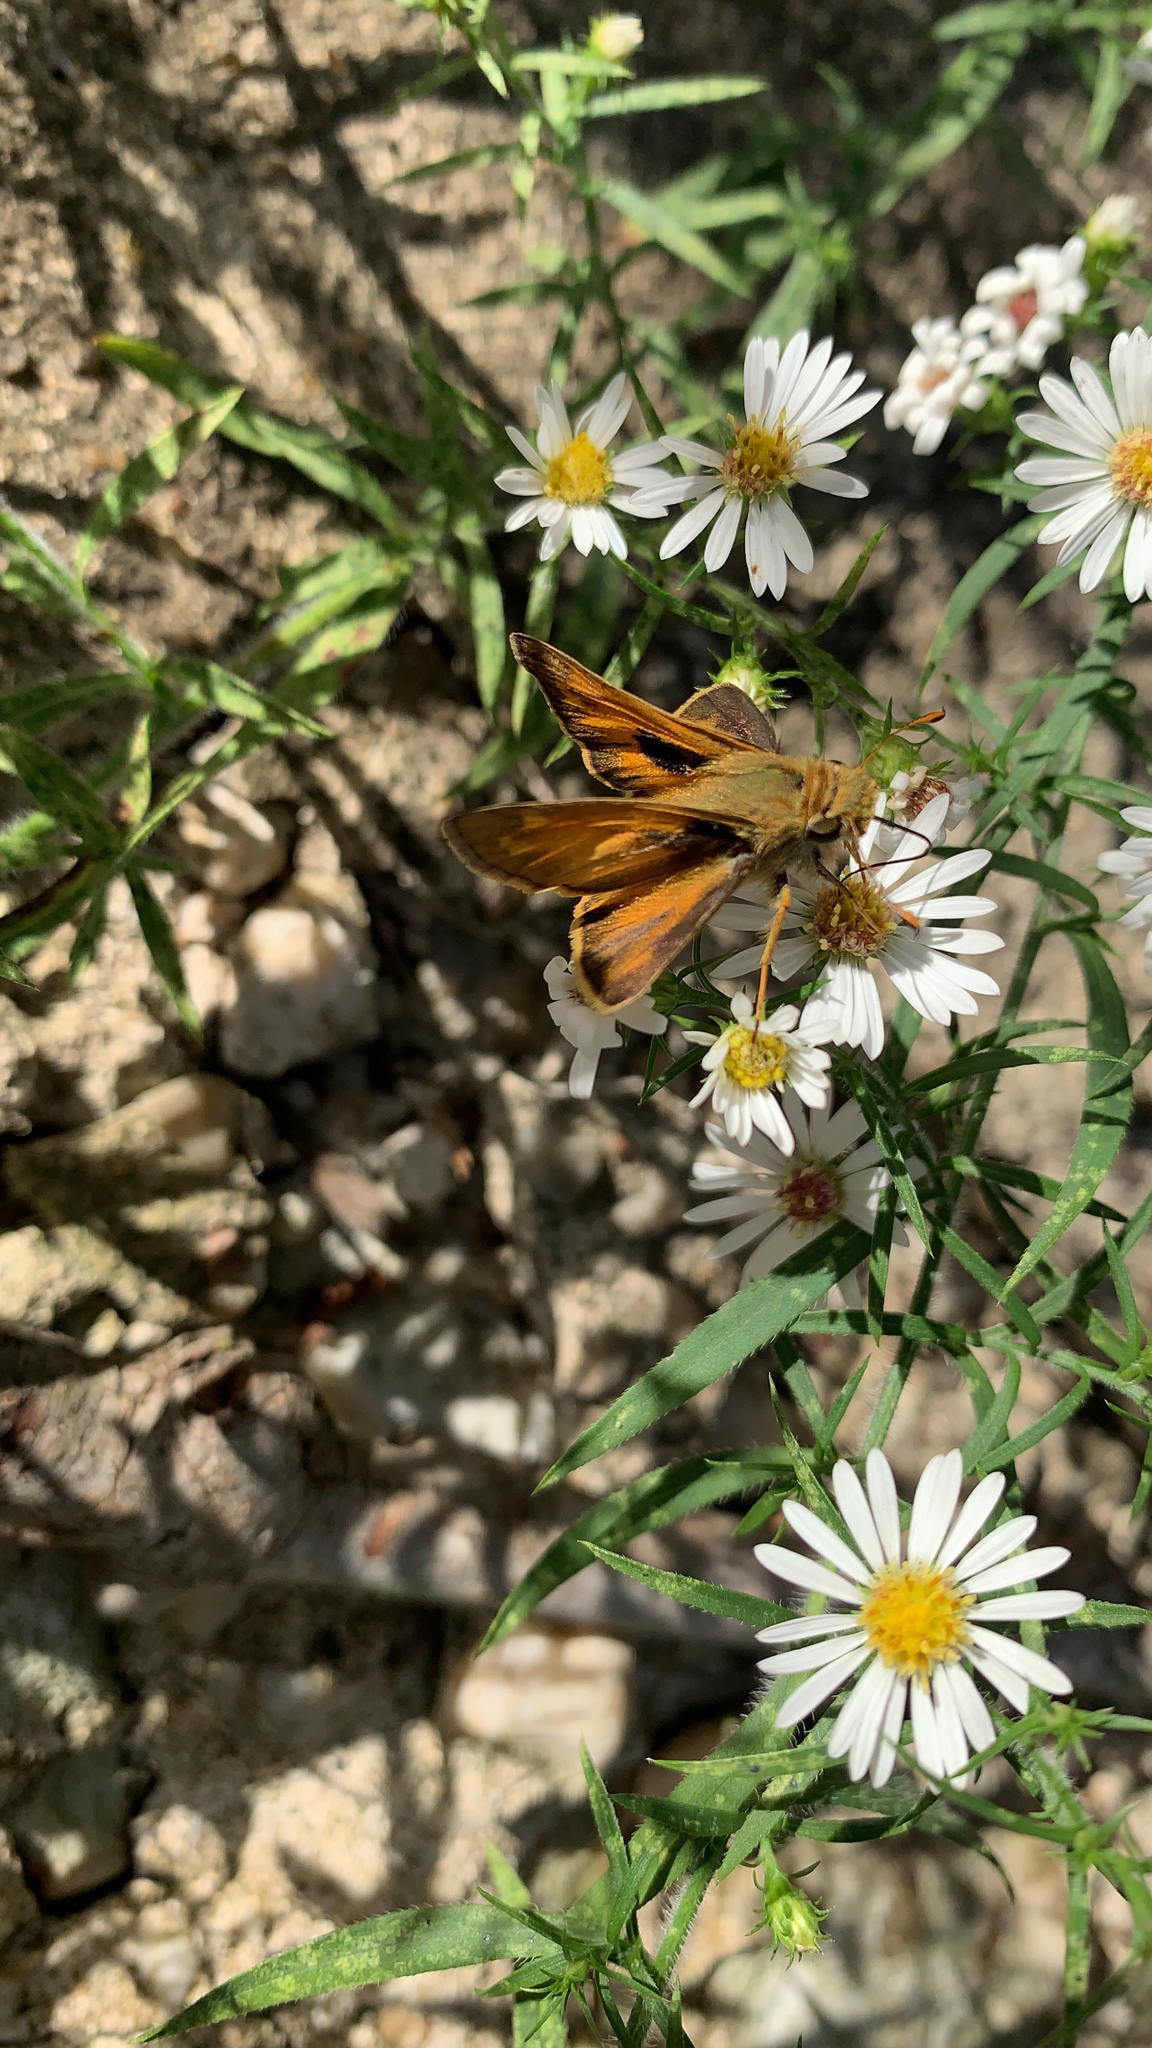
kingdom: Animalia
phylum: Arthropoda
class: Insecta
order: Lepidoptera
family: Hesperiidae
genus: Atalopedes
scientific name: Atalopedes
